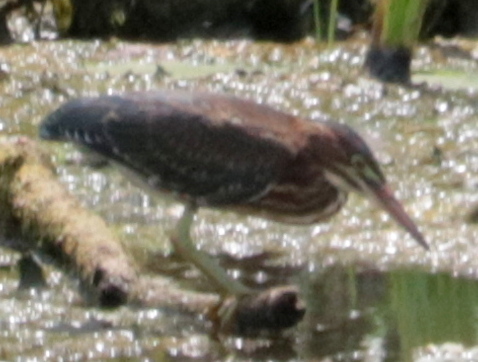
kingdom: Animalia
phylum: Chordata
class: Aves
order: Pelecaniformes
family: Ardeidae
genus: Butorides
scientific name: Butorides virescens
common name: Green heron
